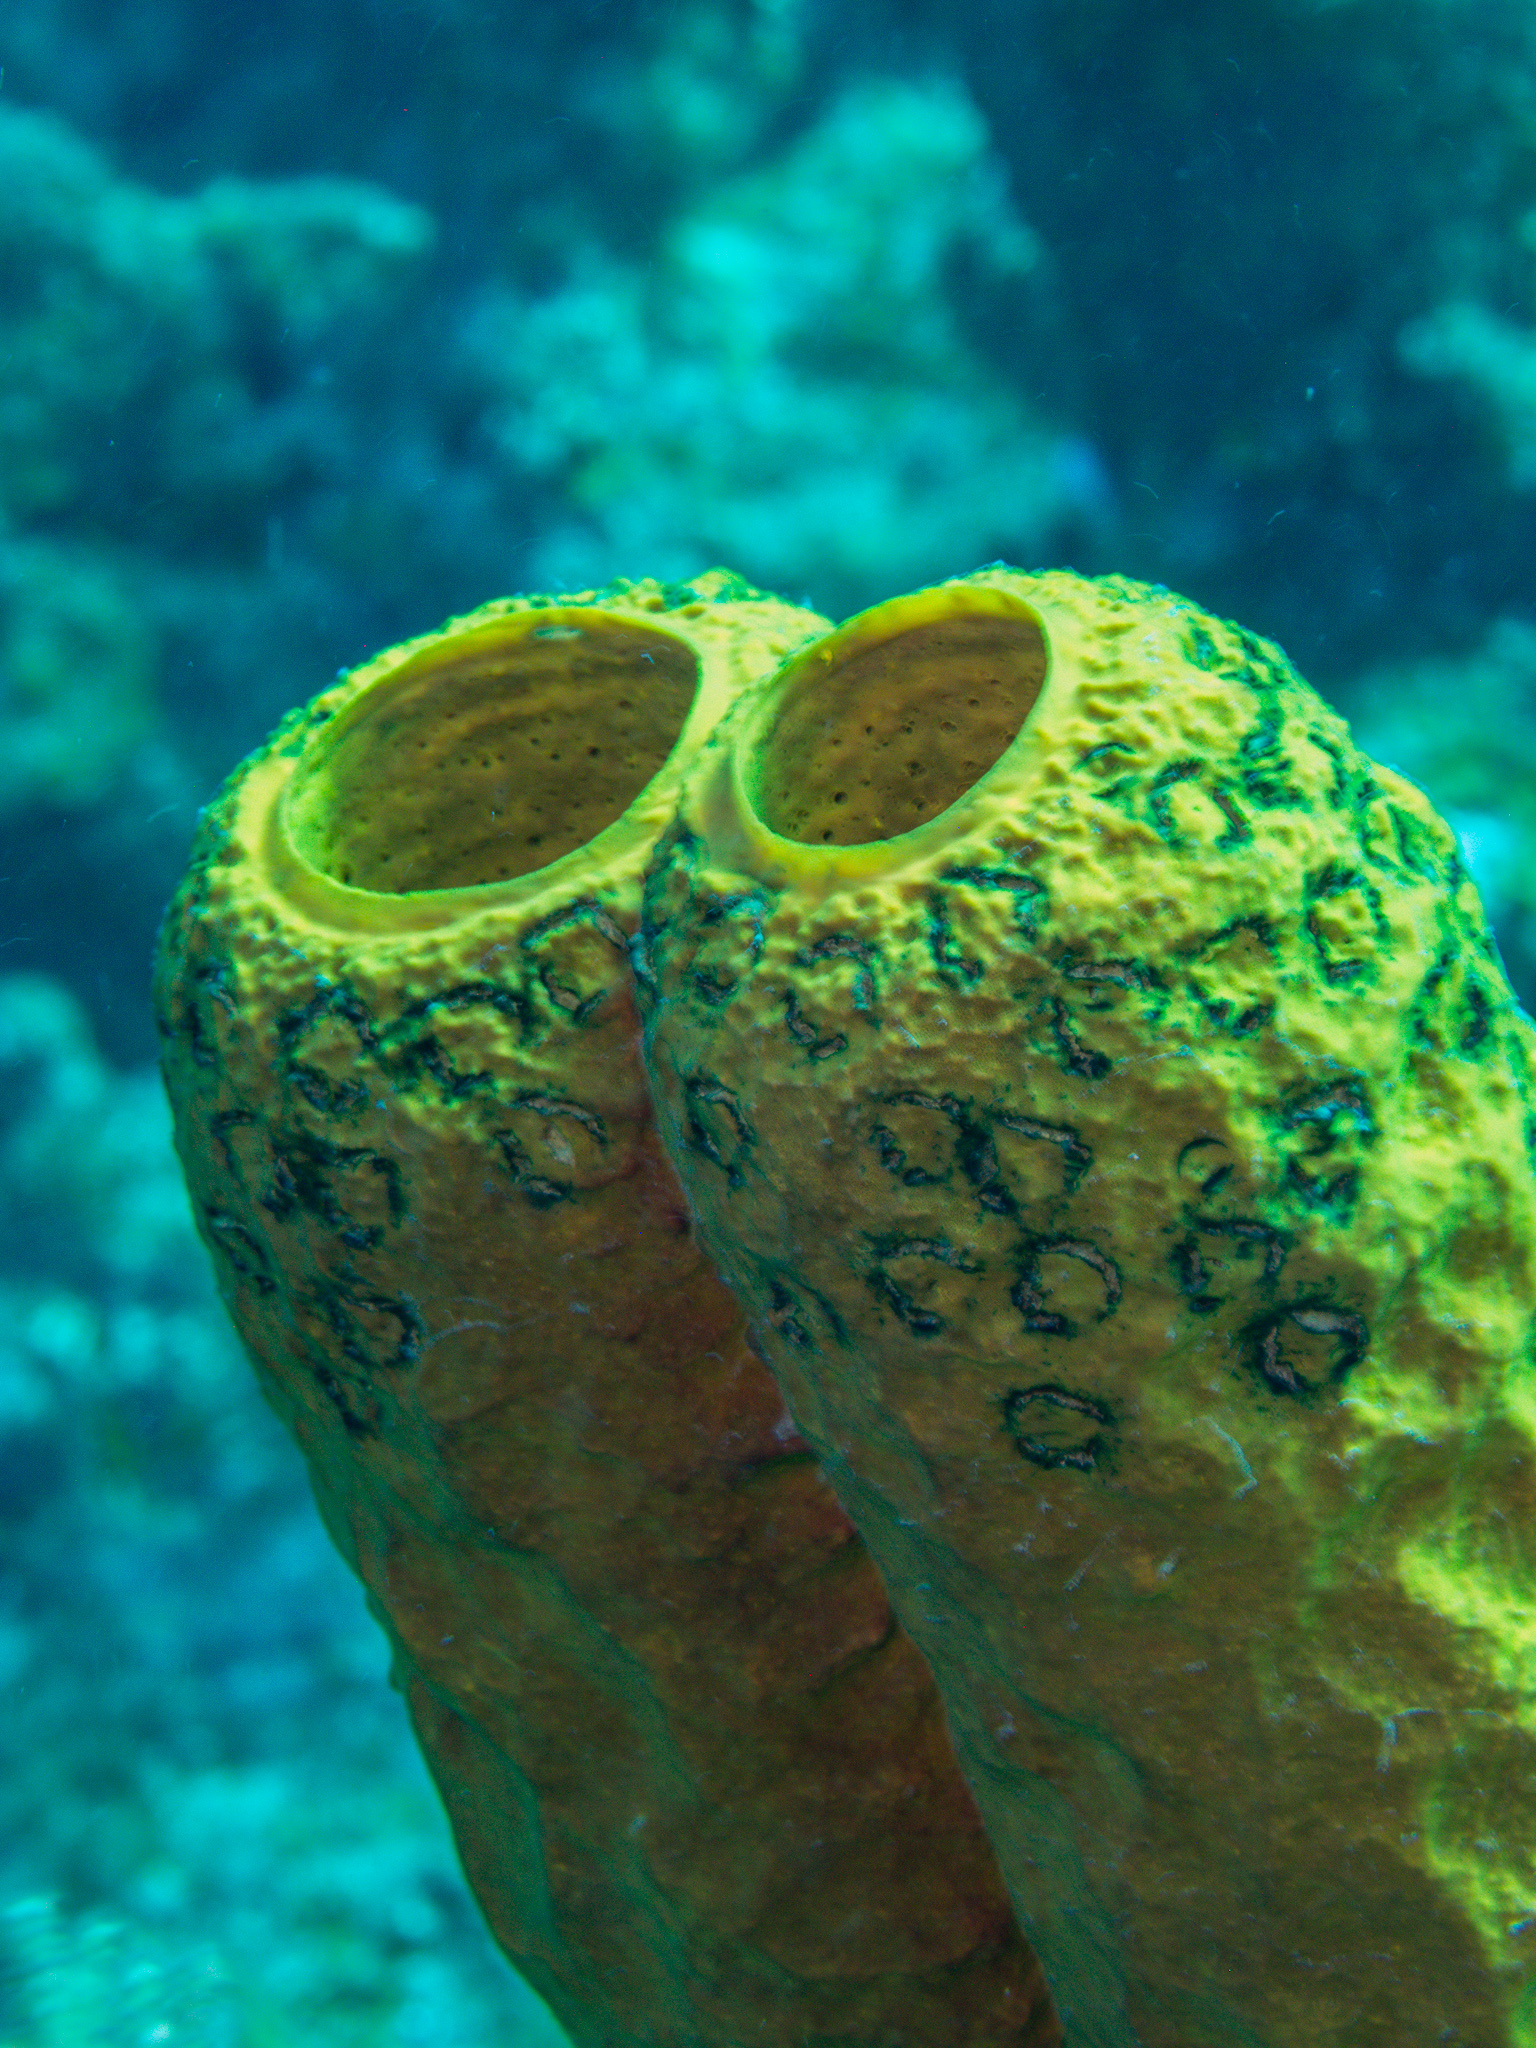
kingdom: Animalia
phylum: Porifera
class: Demospongiae
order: Verongiida
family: Aplysinidae
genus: Aplysina
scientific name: Aplysina fistularis
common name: Candle sponge
